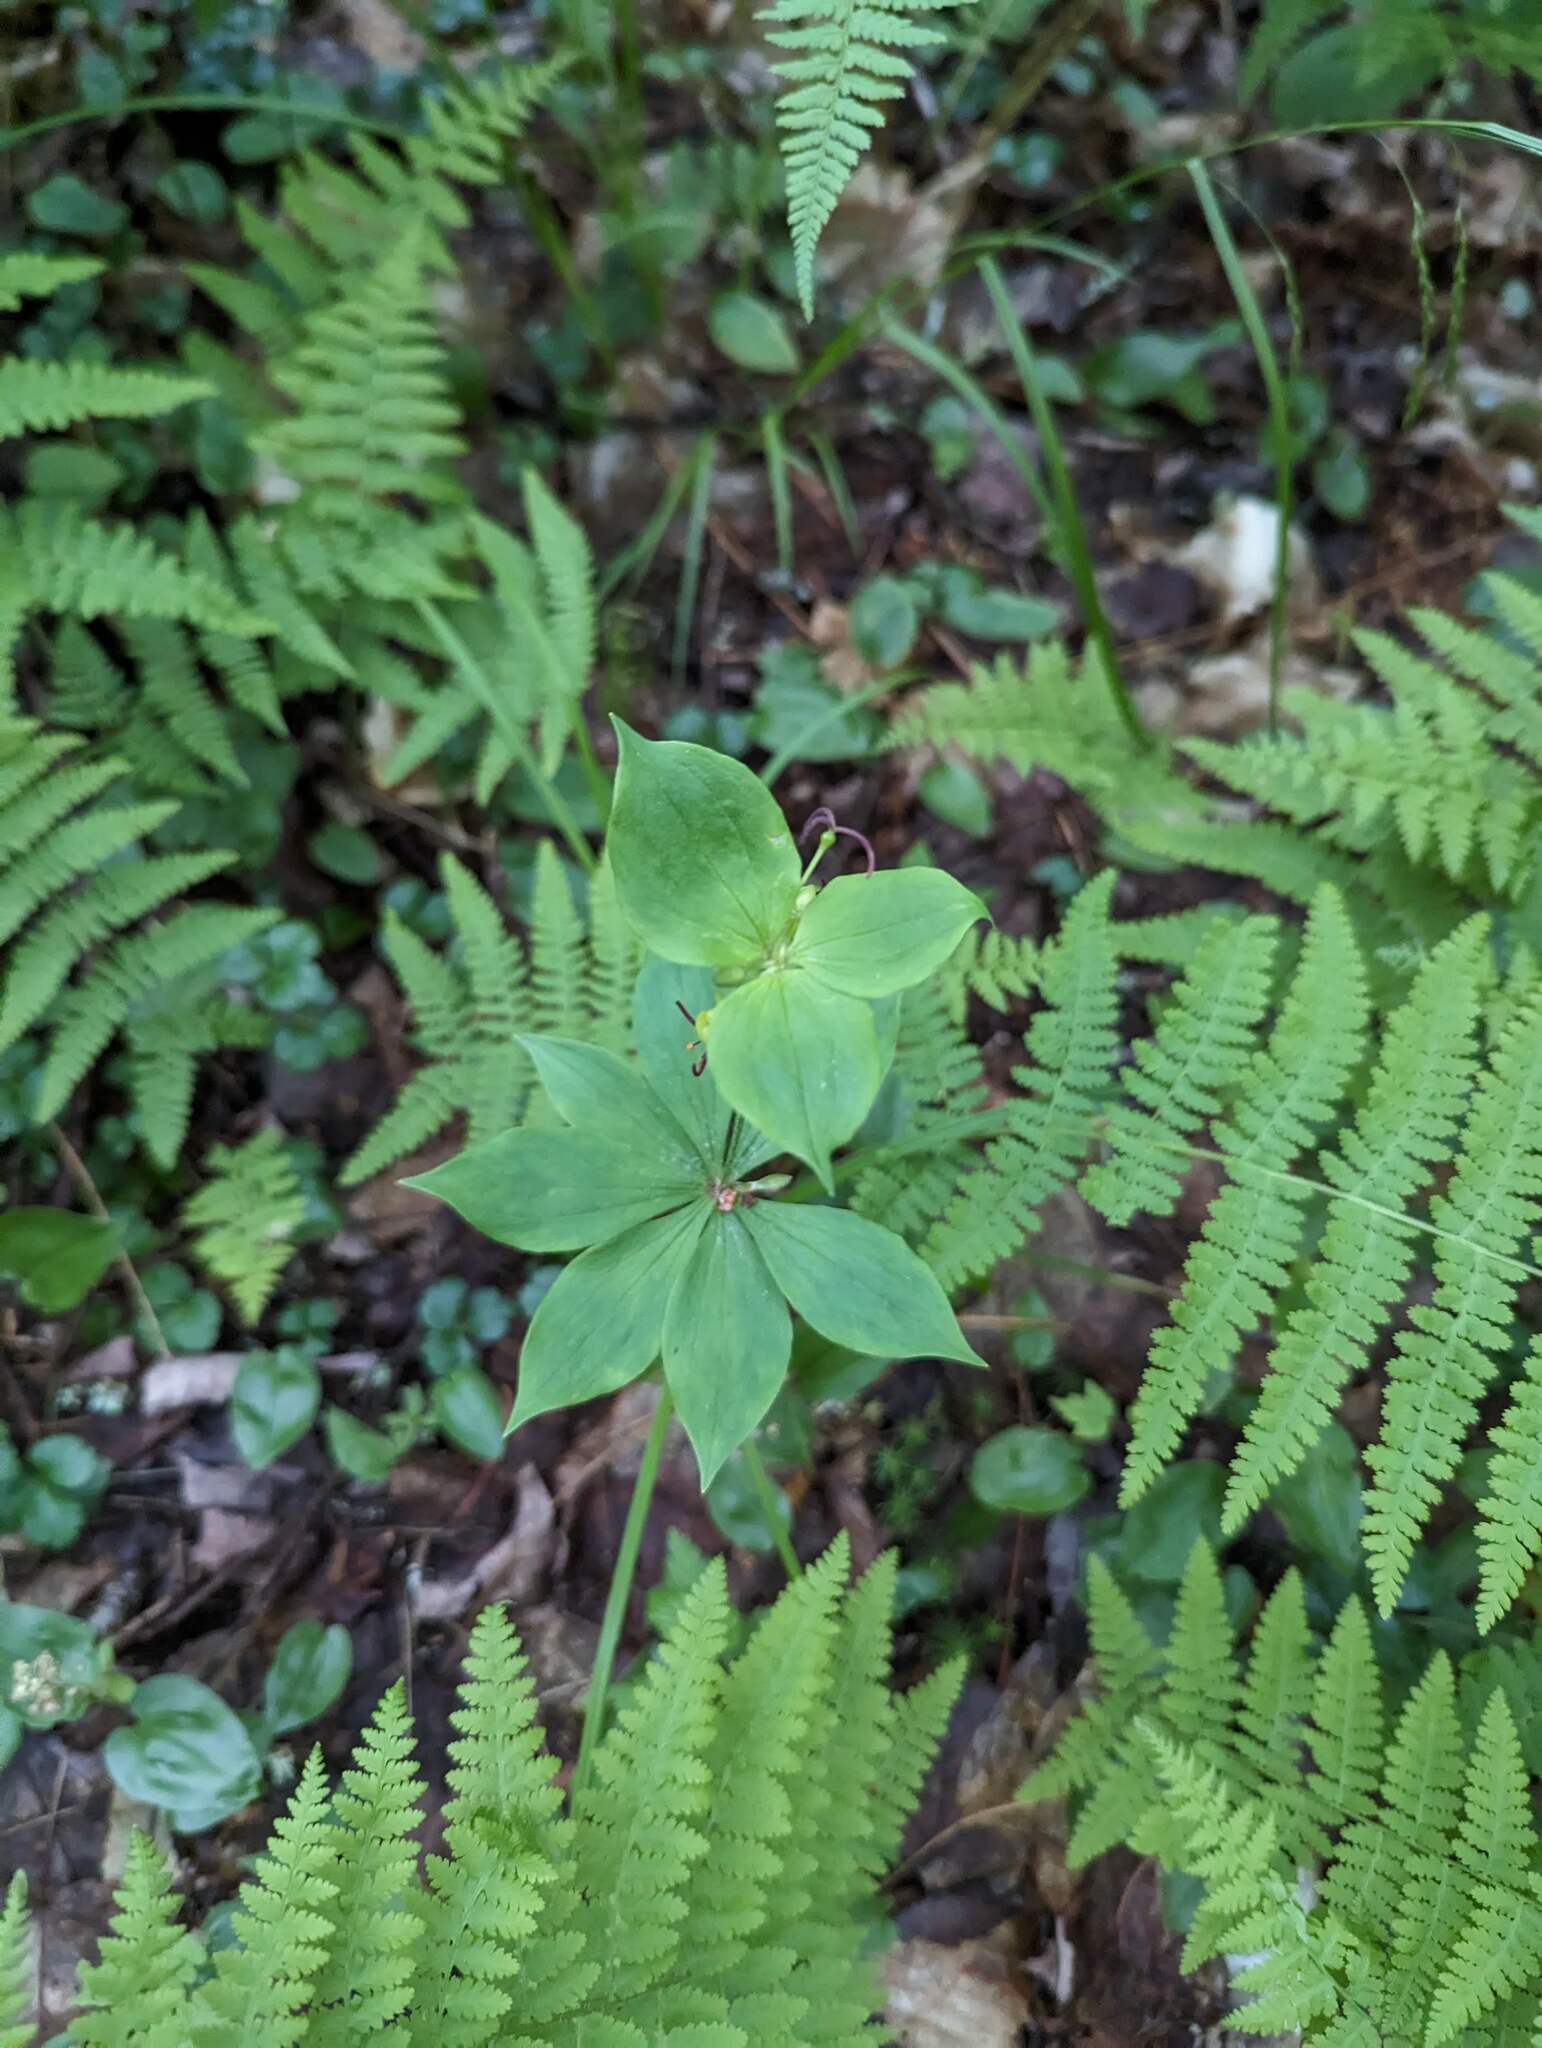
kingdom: Plantae
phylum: Tracheophyta
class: Liliopsida
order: Liliales
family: Liliaceae
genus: Medeola
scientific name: Medeola virginiana
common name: Indian cucumber-root
